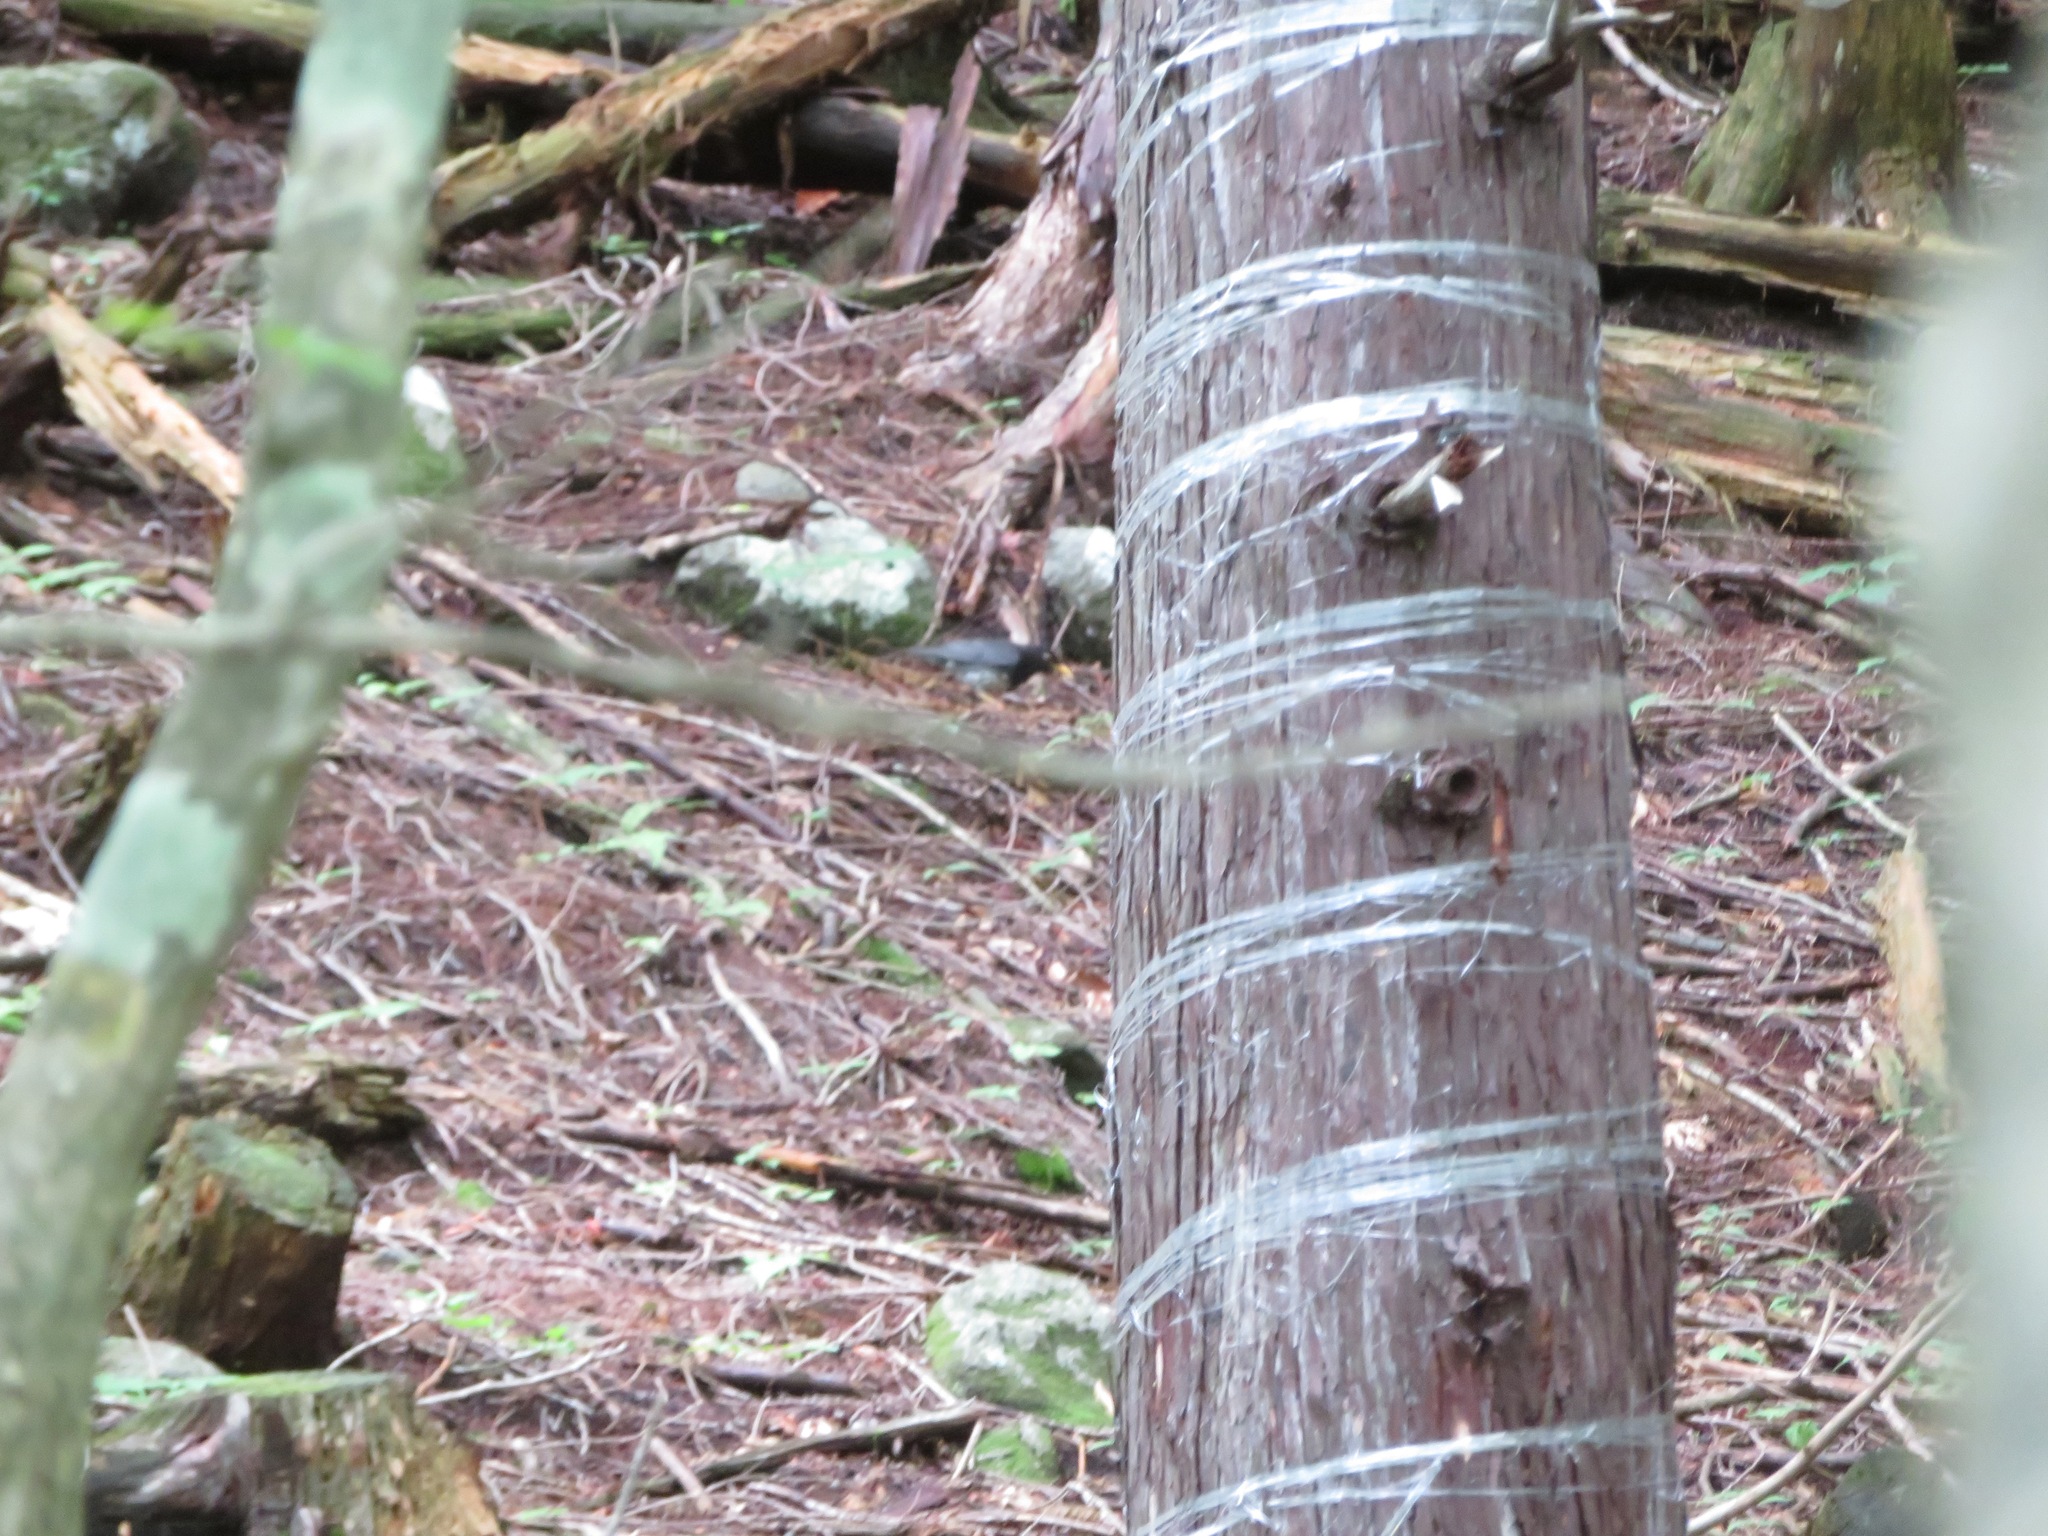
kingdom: Animalia
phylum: Chordata
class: Aves
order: Passeriformes
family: Turdidae
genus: Turdus
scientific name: Turdus cardis
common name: Japanese thrush
